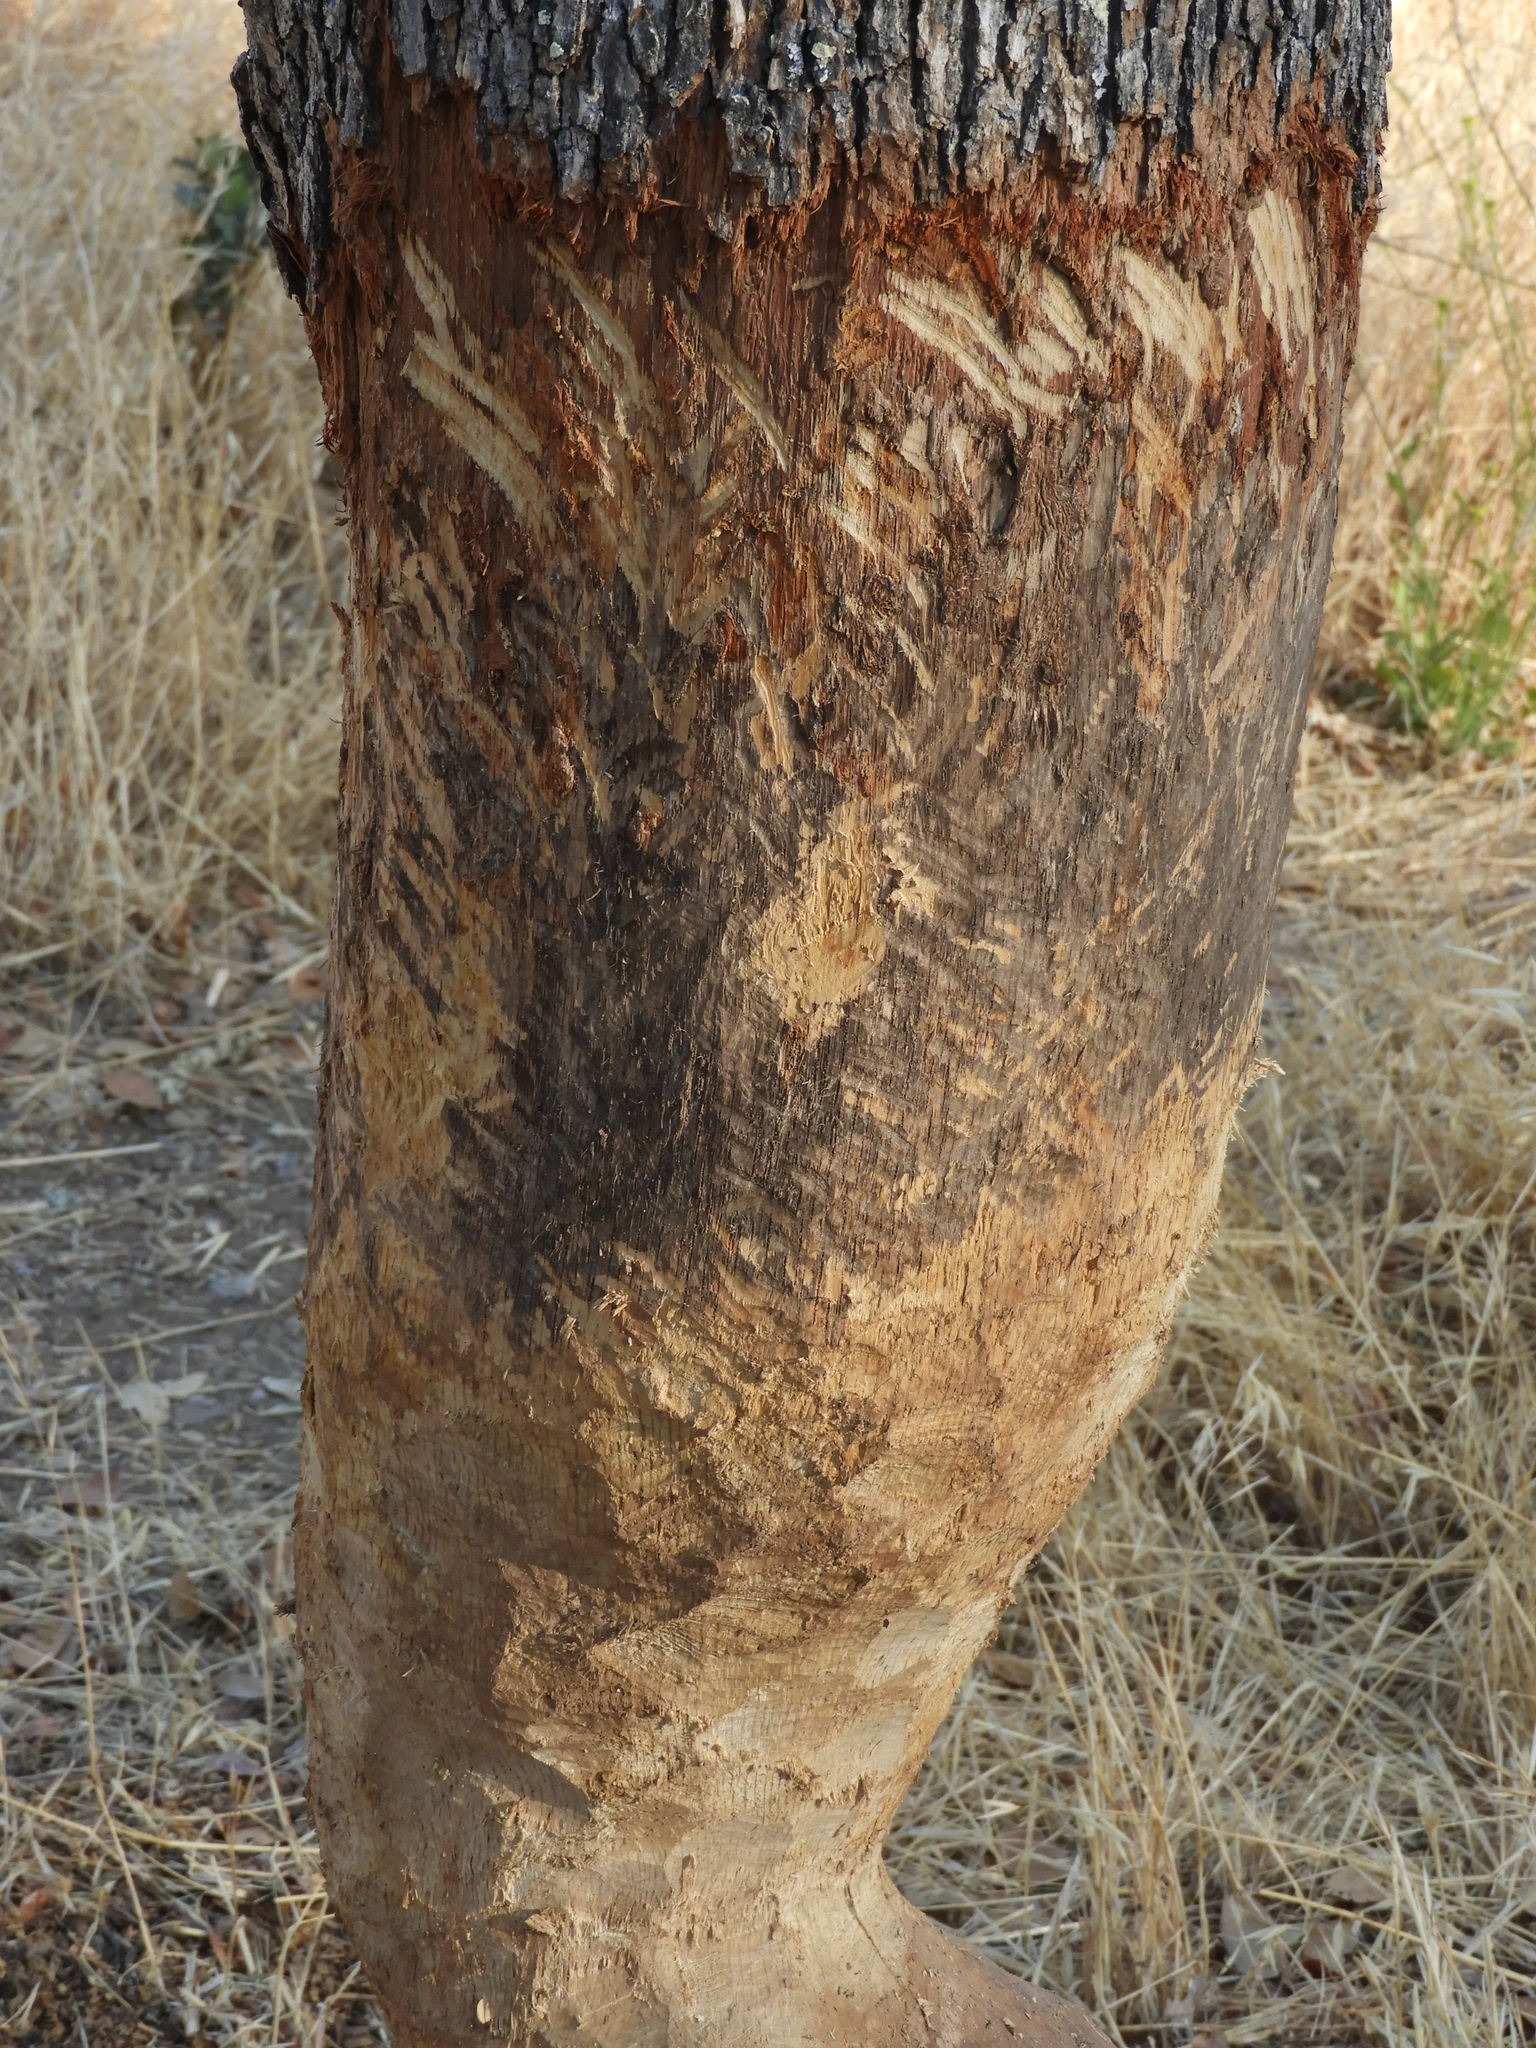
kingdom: Animalia
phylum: Chordata
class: Mammalia
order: Rodentia
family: Castoridae
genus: Castor
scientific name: Castor canadensis
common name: American beaver
